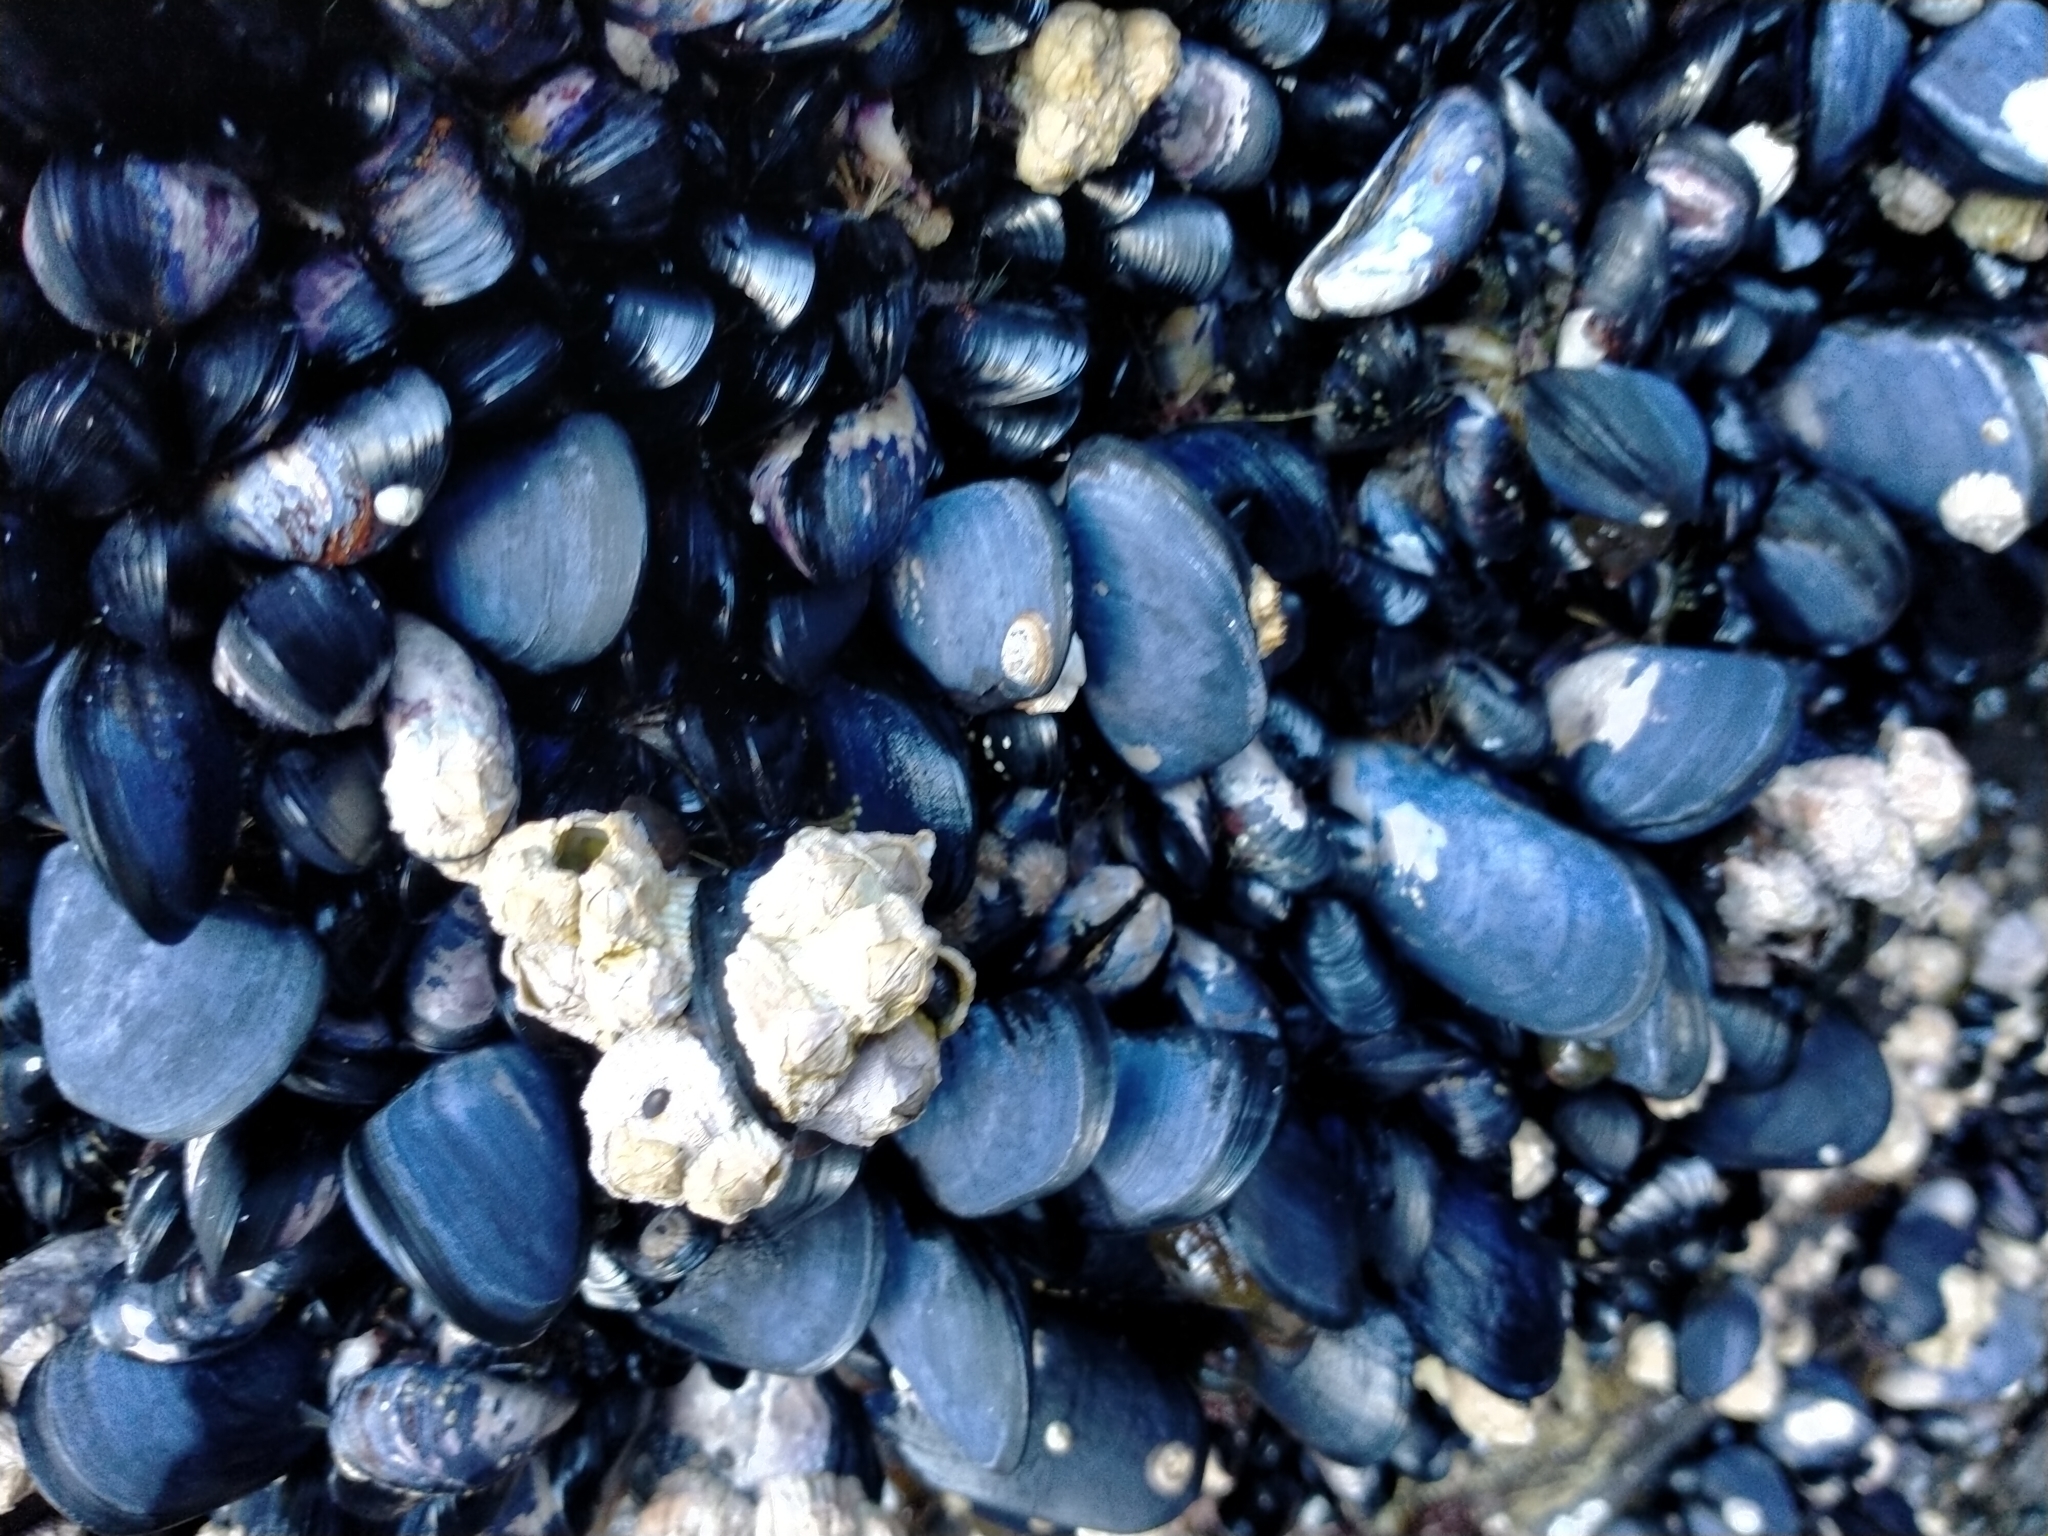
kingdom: Animalia
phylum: Mollusca
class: Bivalvia
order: Mytilida
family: Mytilidae
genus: Mytilus
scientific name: Mytilus planulatus
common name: Australian mussel
